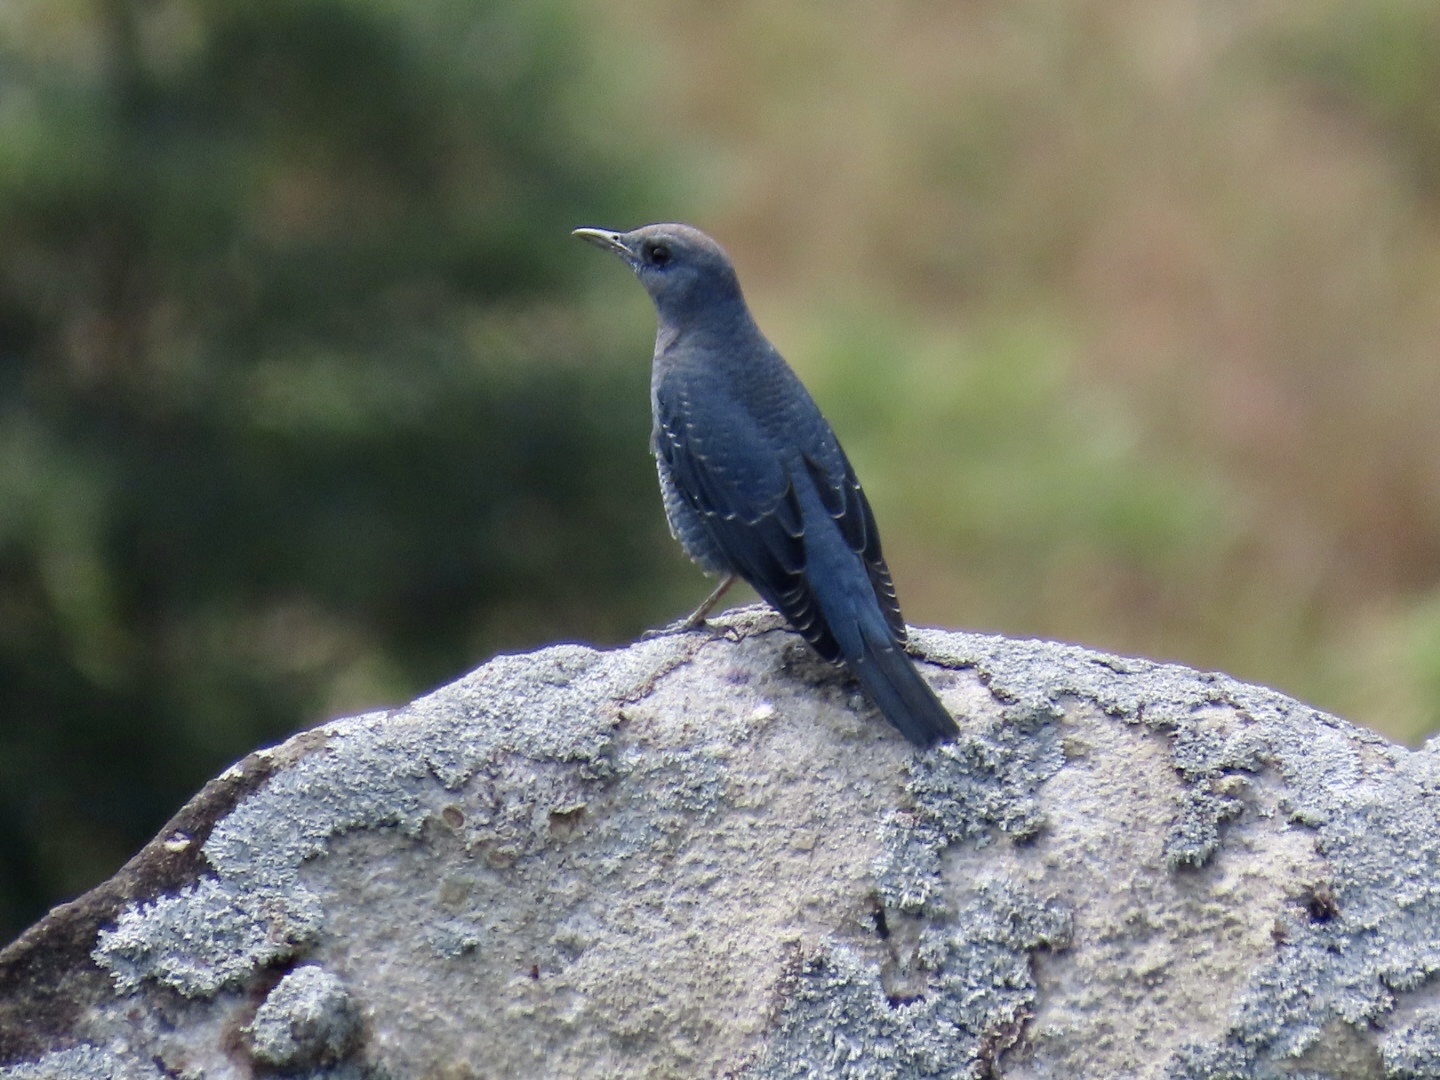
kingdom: Animalia
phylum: Chordata
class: Aves
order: Passeriformes
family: Muscicapidae
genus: Monticola
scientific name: Monticola solitarius
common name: Blue rock thrush
